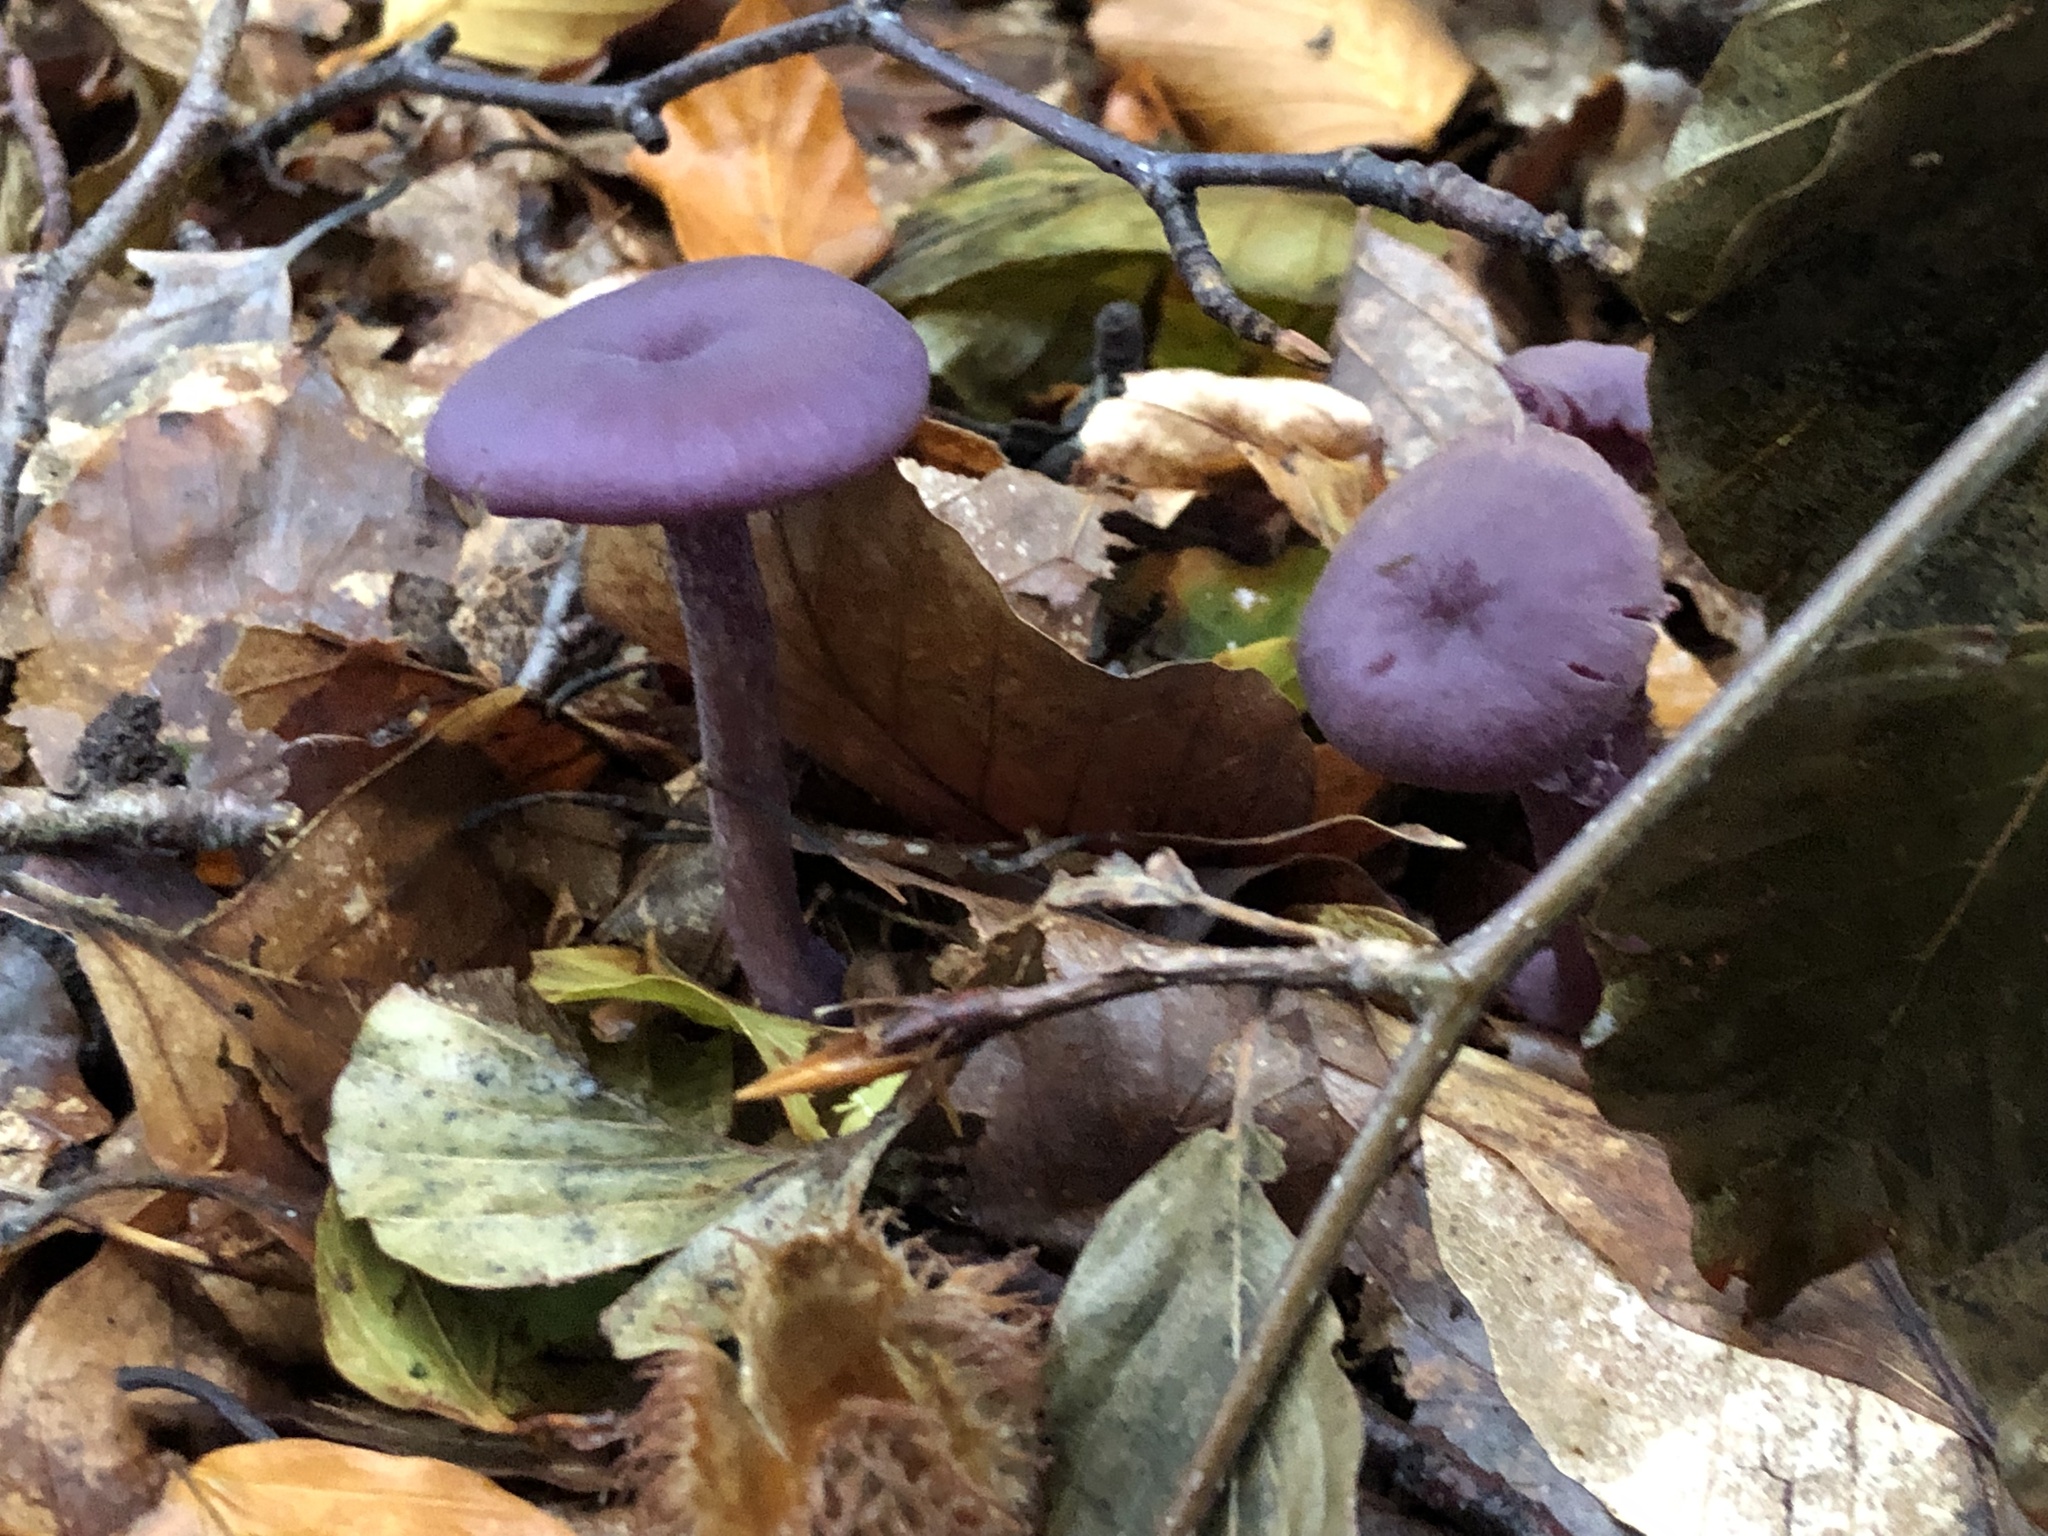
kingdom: Fungi
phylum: Basidiomycota
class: Agaricomycetes
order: Agaricales
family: Hydnangiaceae
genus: Laccaria
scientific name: Laccaria amethystina
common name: Amethyst deceiver
